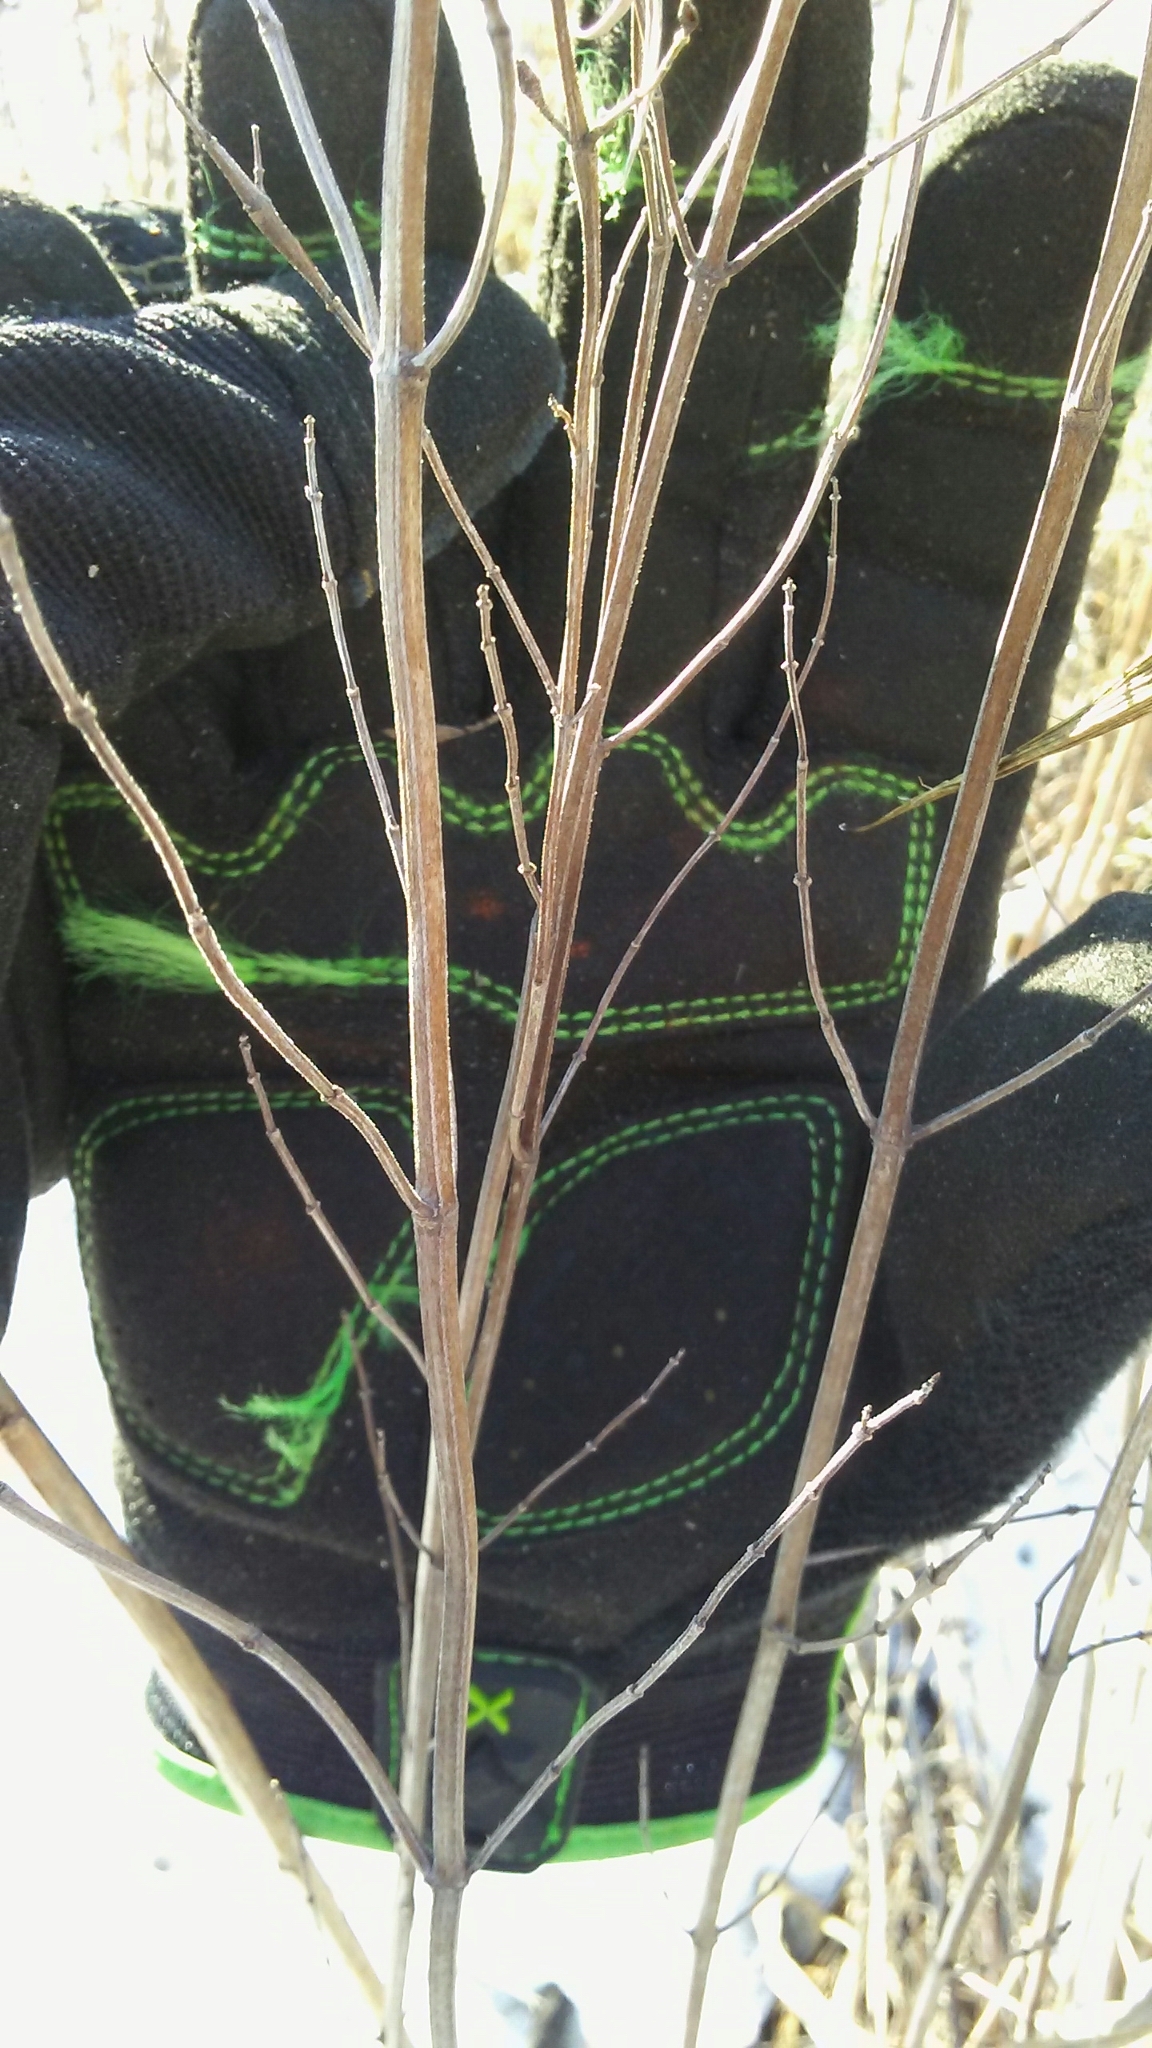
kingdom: Plantae
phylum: Tracheophyta
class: Magnoliopsida
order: Lamiales
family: Lamiaceae
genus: Pycnanthemum
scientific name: Pycnanthemum virginianum
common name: Virginia mountain-mint
